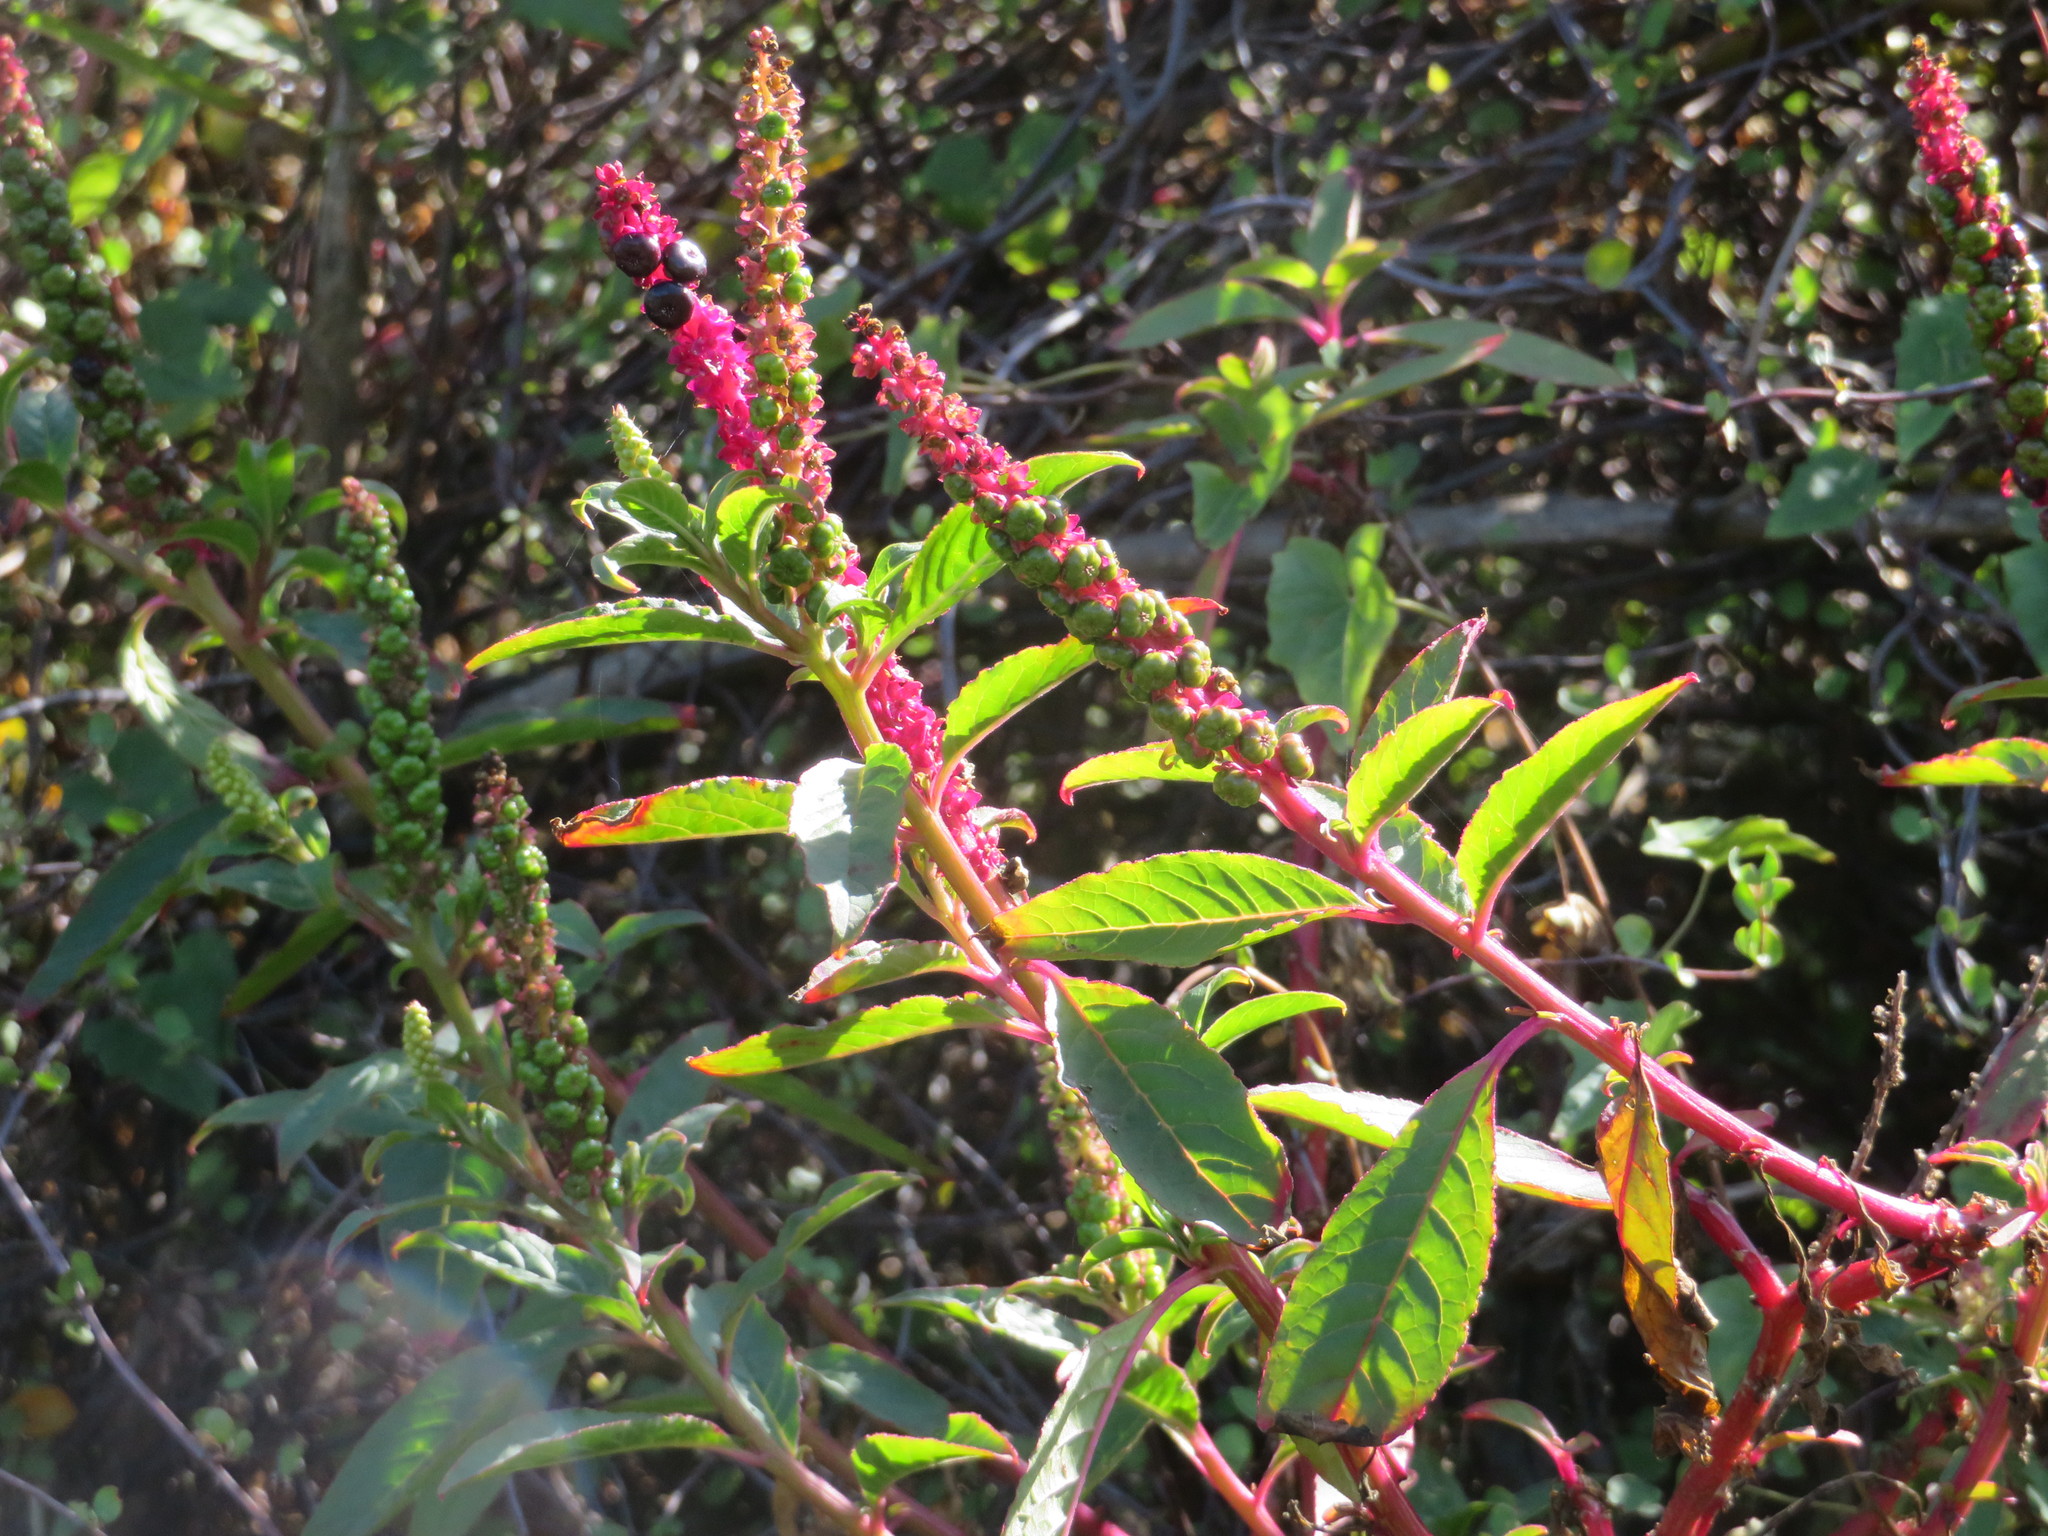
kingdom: Plantae
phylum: Tracheophyta
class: Magnoliopsida
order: Caryophyllales
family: Phytolaccaceae
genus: Phytolacca
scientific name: Phytolacca icosandra
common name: Button pokeweed
